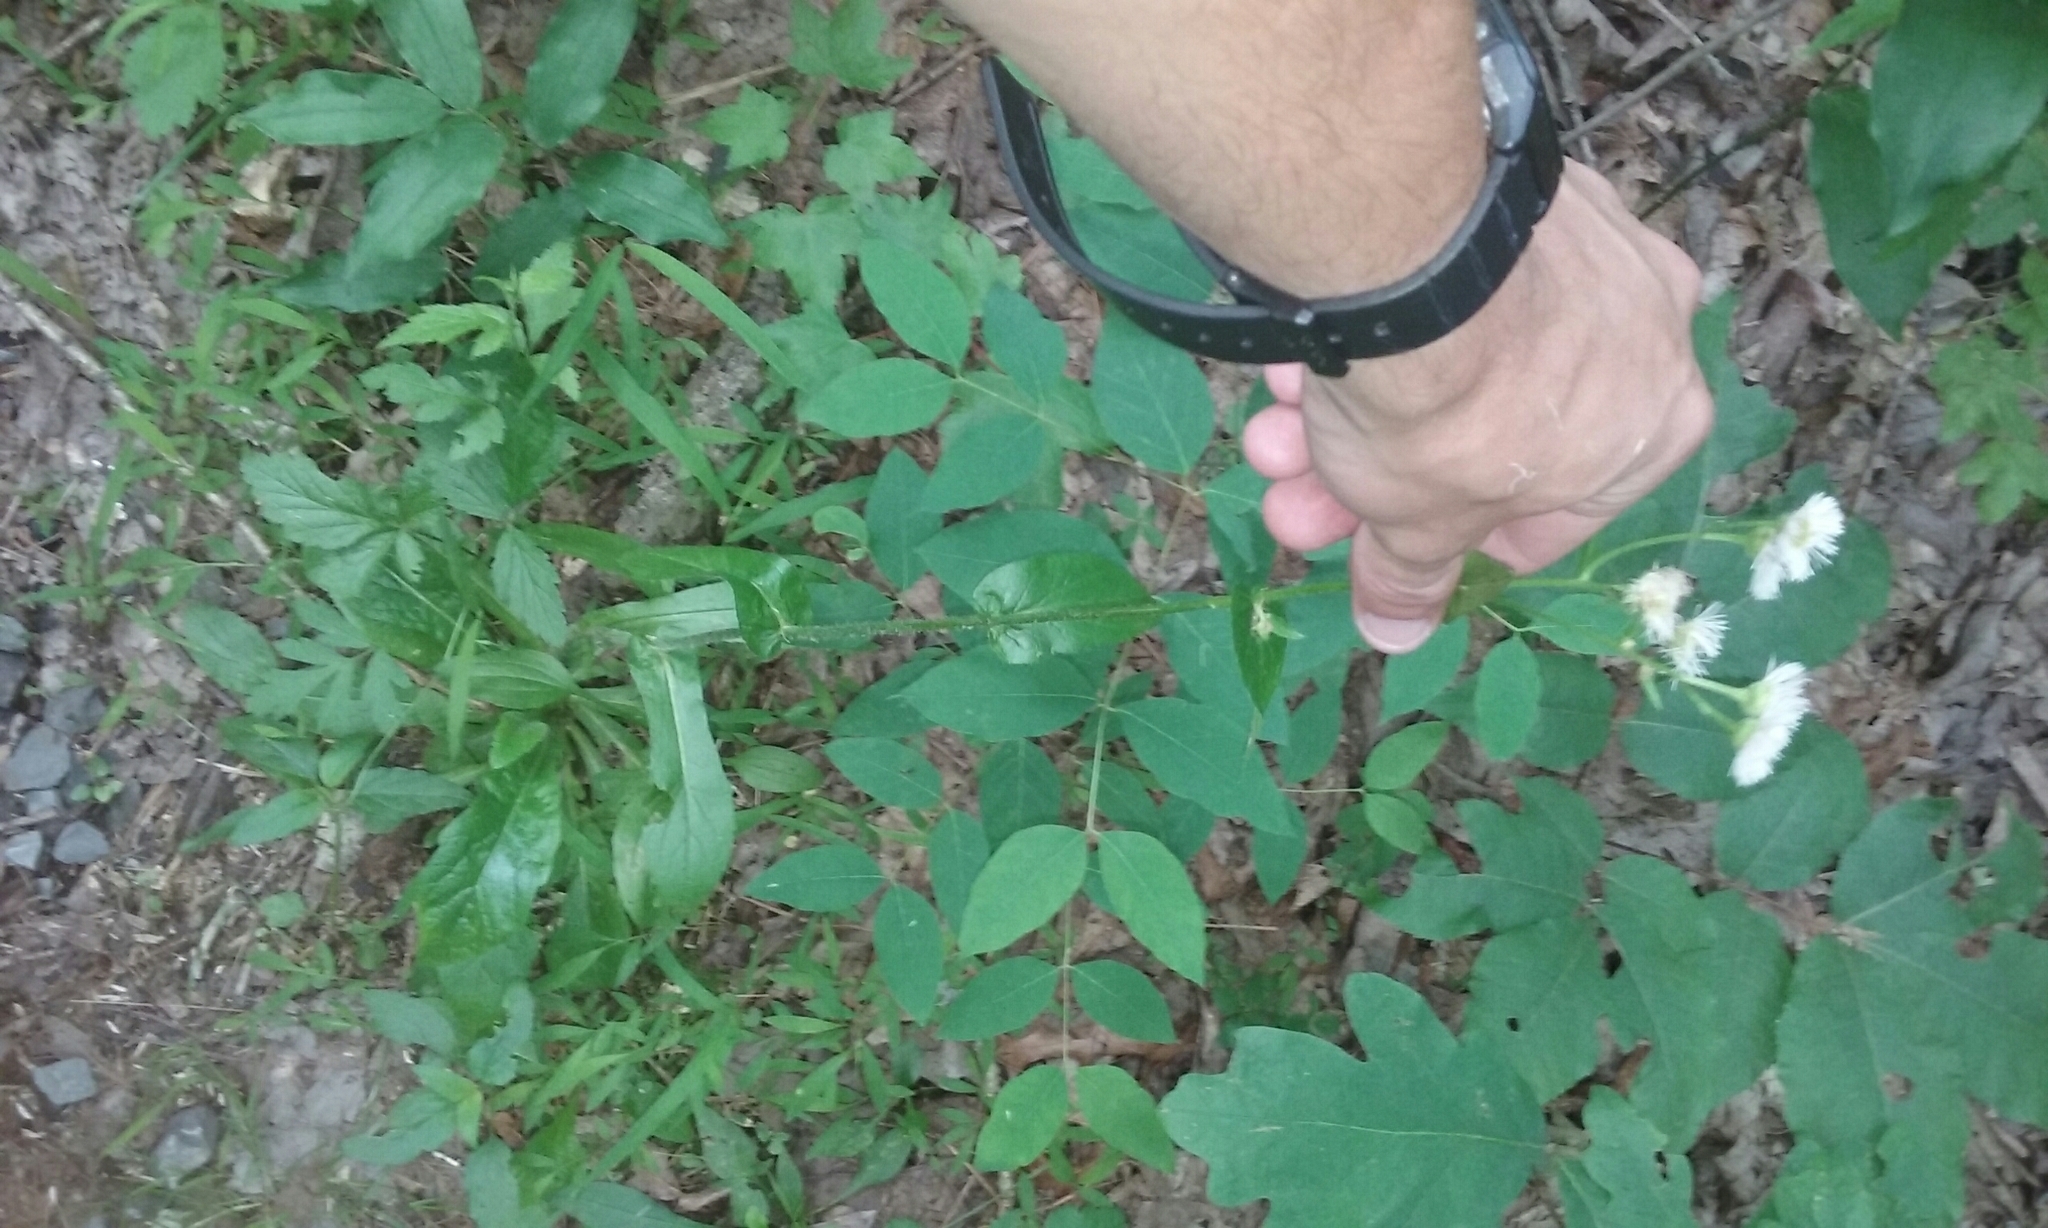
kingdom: Plantae
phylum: Tracheophyta
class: Magnoliopsida
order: Asterales
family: Asteraceae
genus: Erigeron
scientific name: Erigeron philadelphicus
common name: Robin's-plantain
